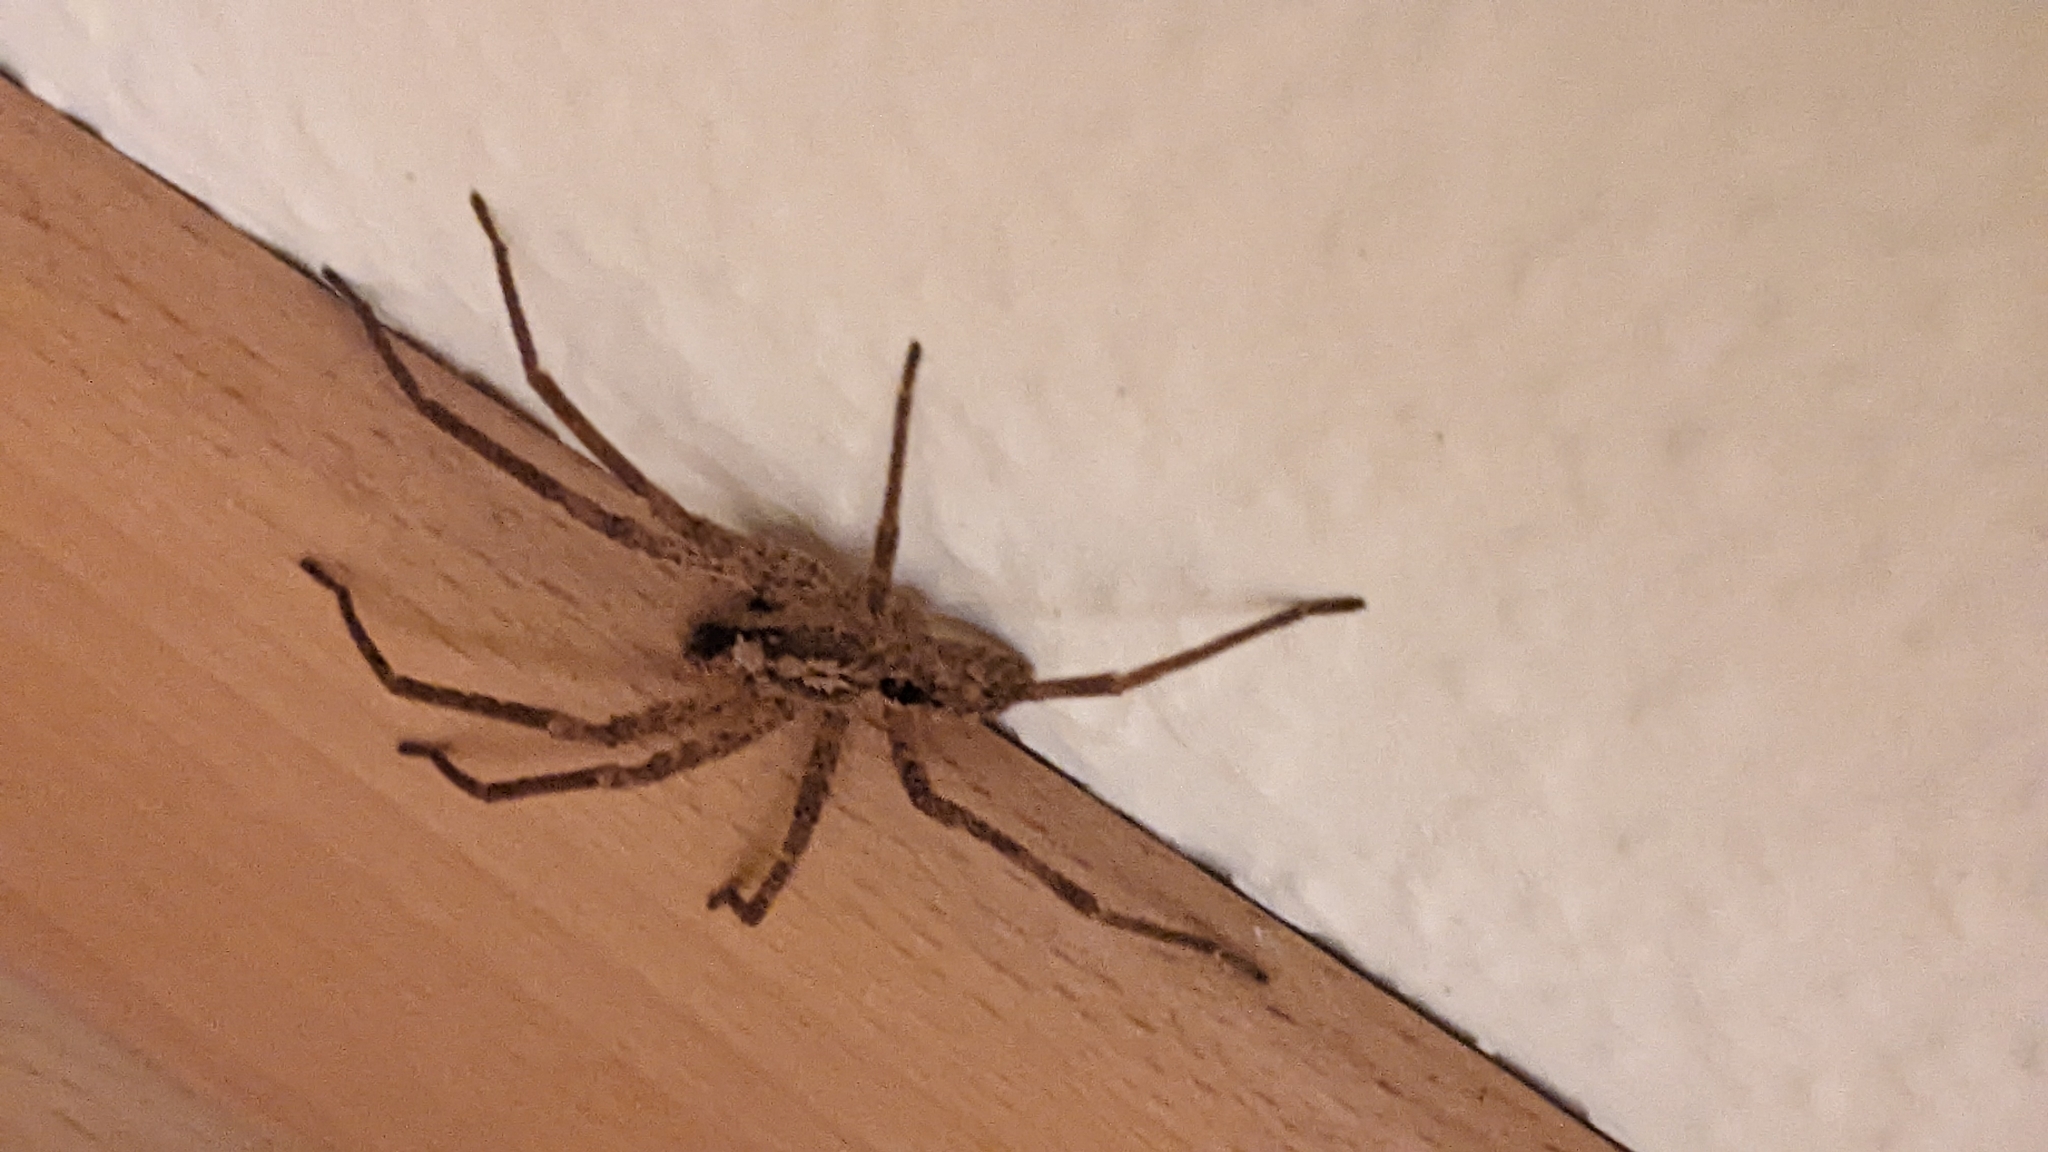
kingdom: Animalia
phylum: Arthropoda
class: Arachnida
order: Araneae
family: Zoropsidae
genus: Zoropsis
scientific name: Zoropsis spinimana
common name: Zoropsid spider
